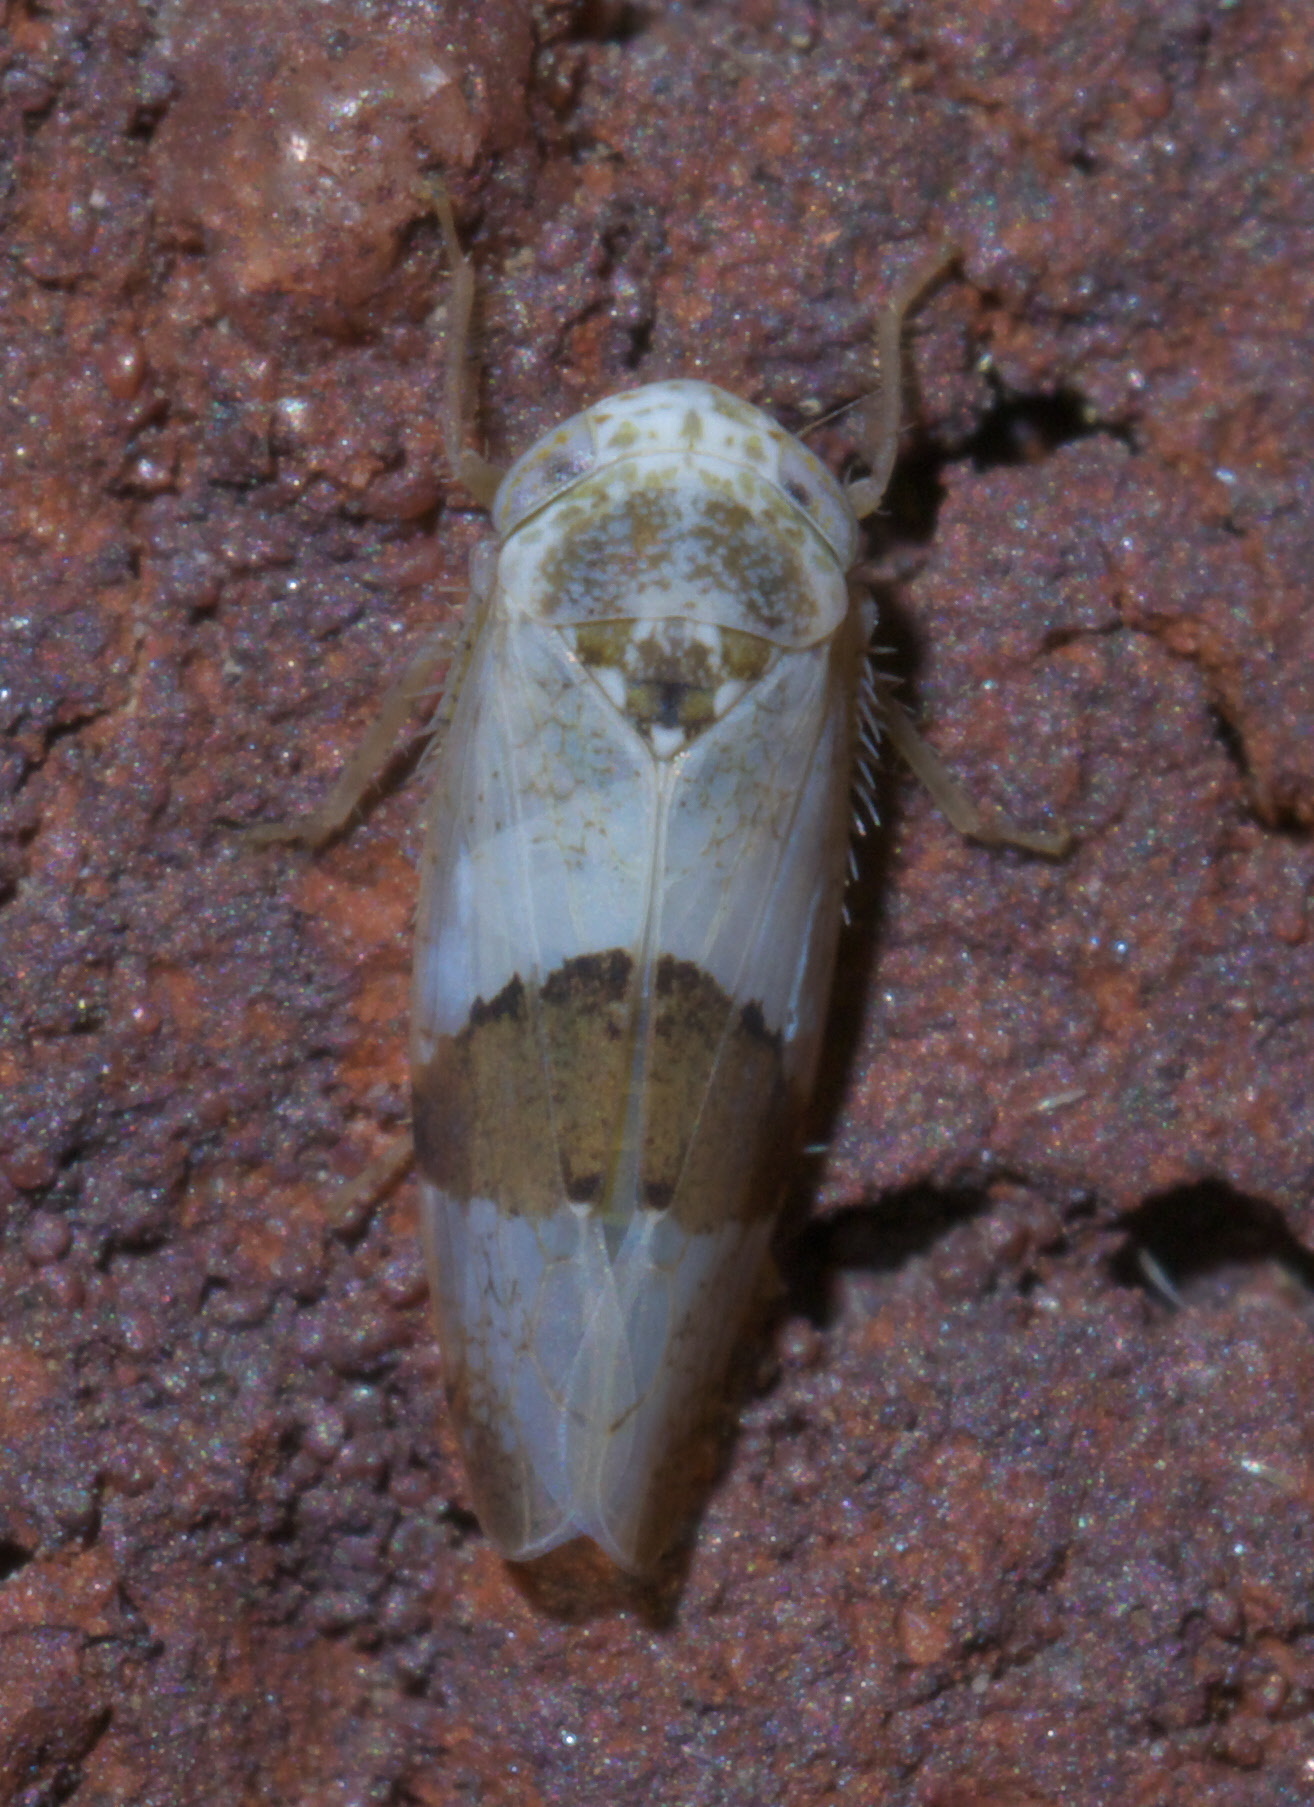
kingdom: Animalia
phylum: Arthropoda
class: Insecta
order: Hemiptera
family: Cicadellidae
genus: Norvellina
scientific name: Norvellina seminuda
